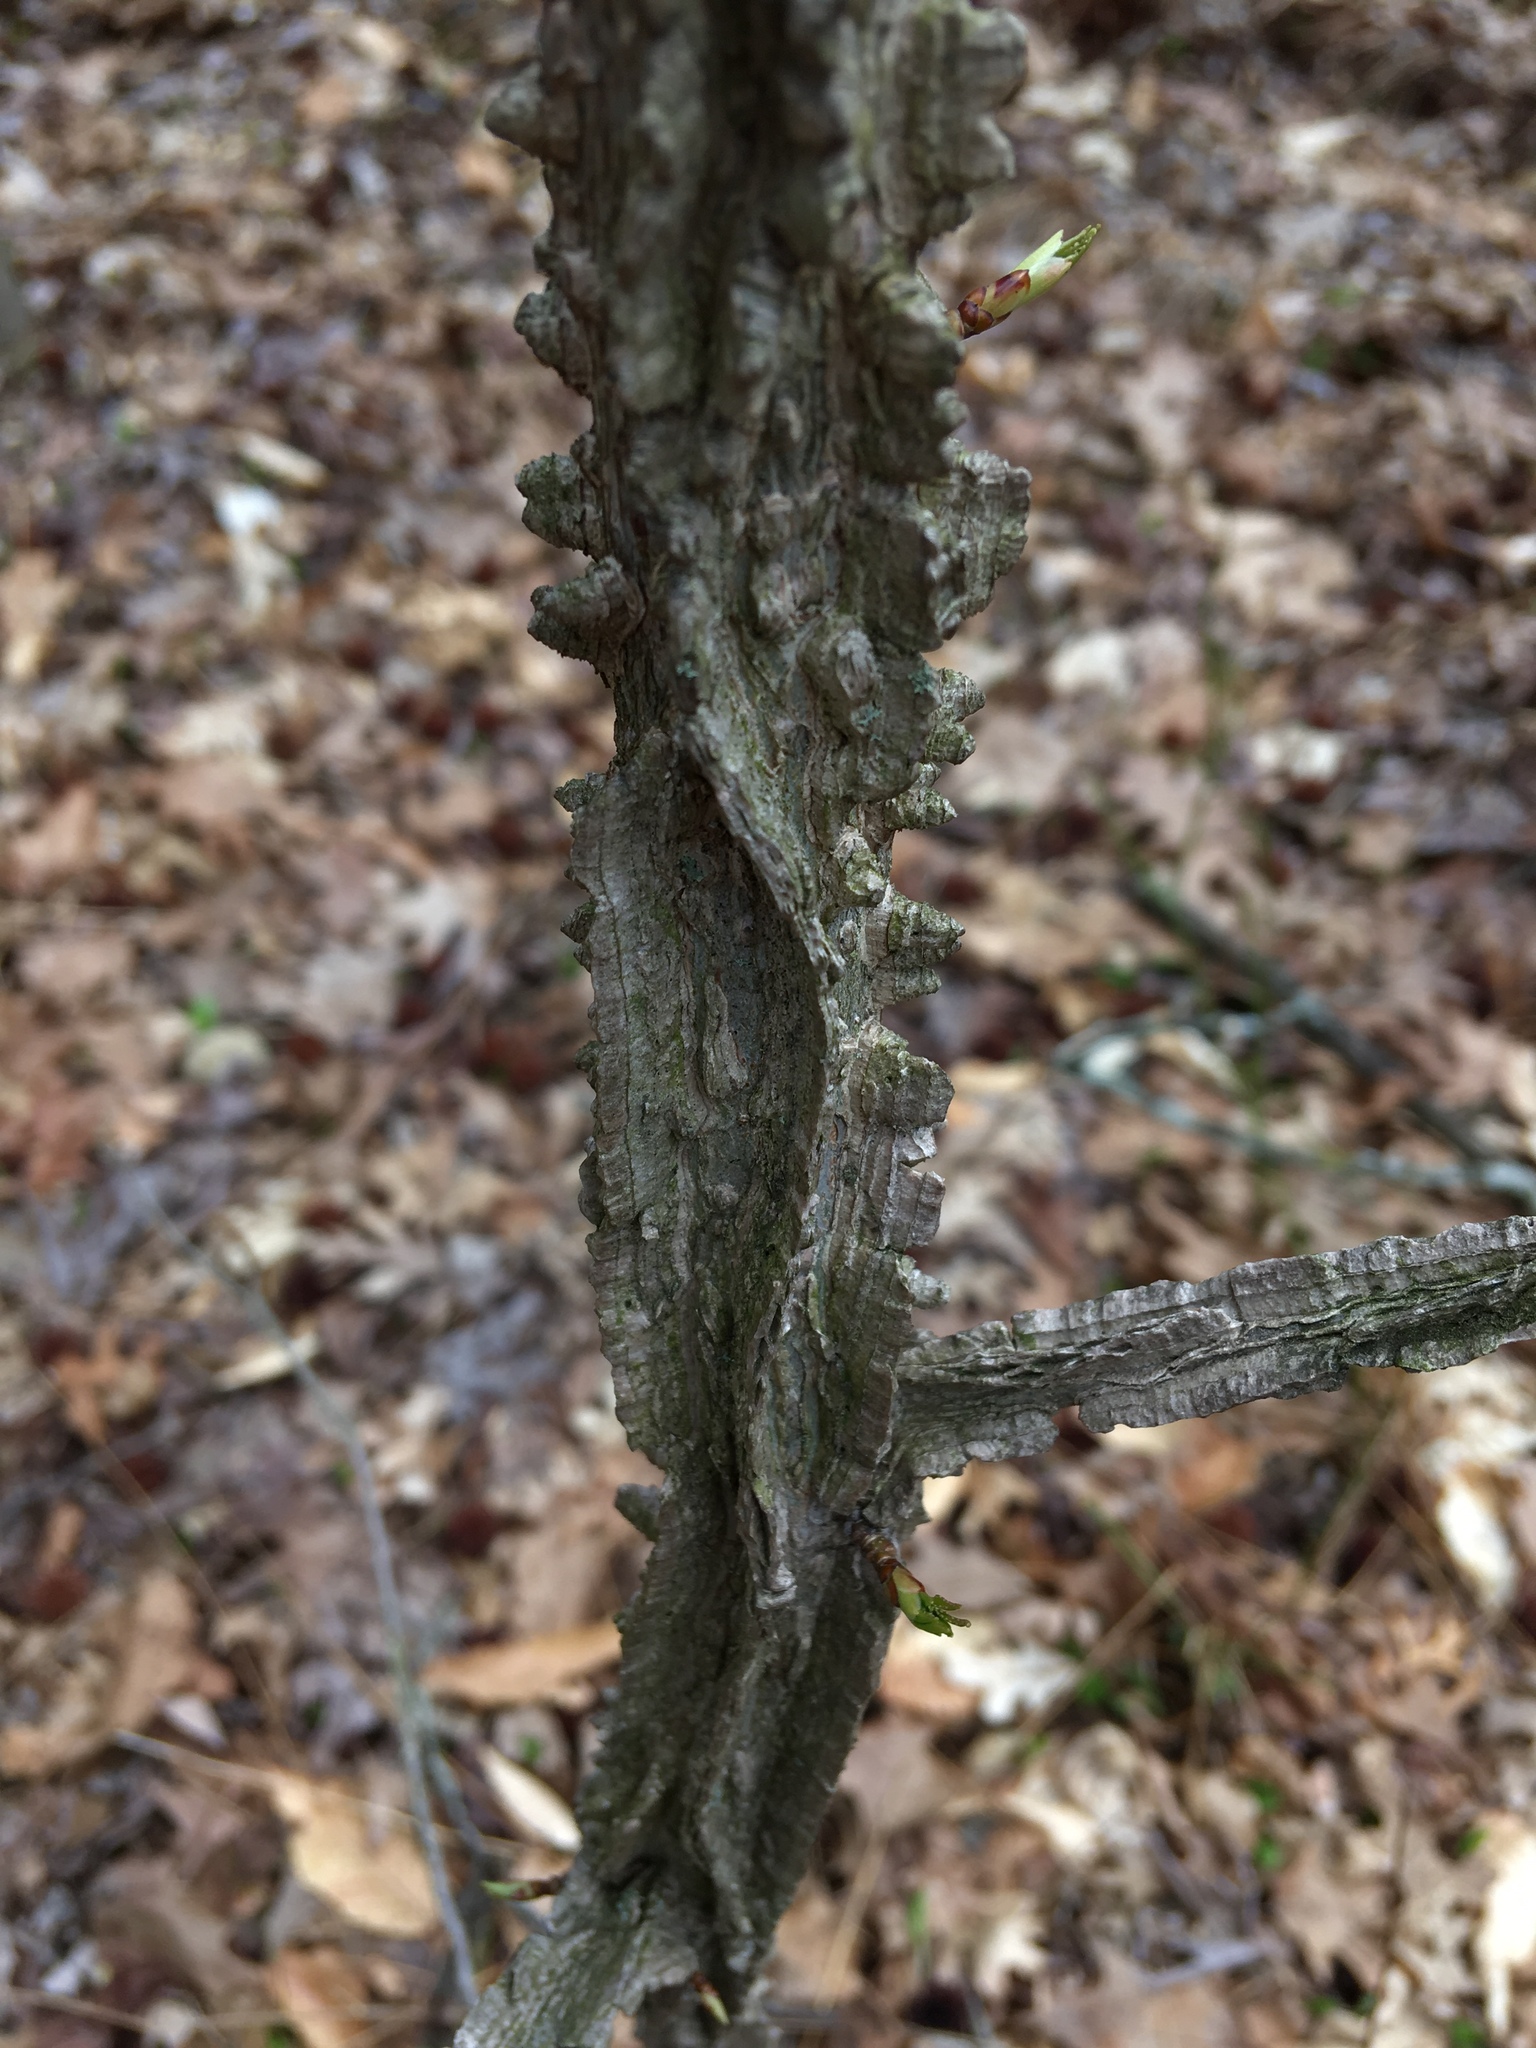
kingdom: Plantae
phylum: Tracheophyta
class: Magnoliopsida
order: Saxifragales
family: Altingiaceae
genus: Liquidambar
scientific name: Liquidambar styraciflua
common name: Sweet gum
